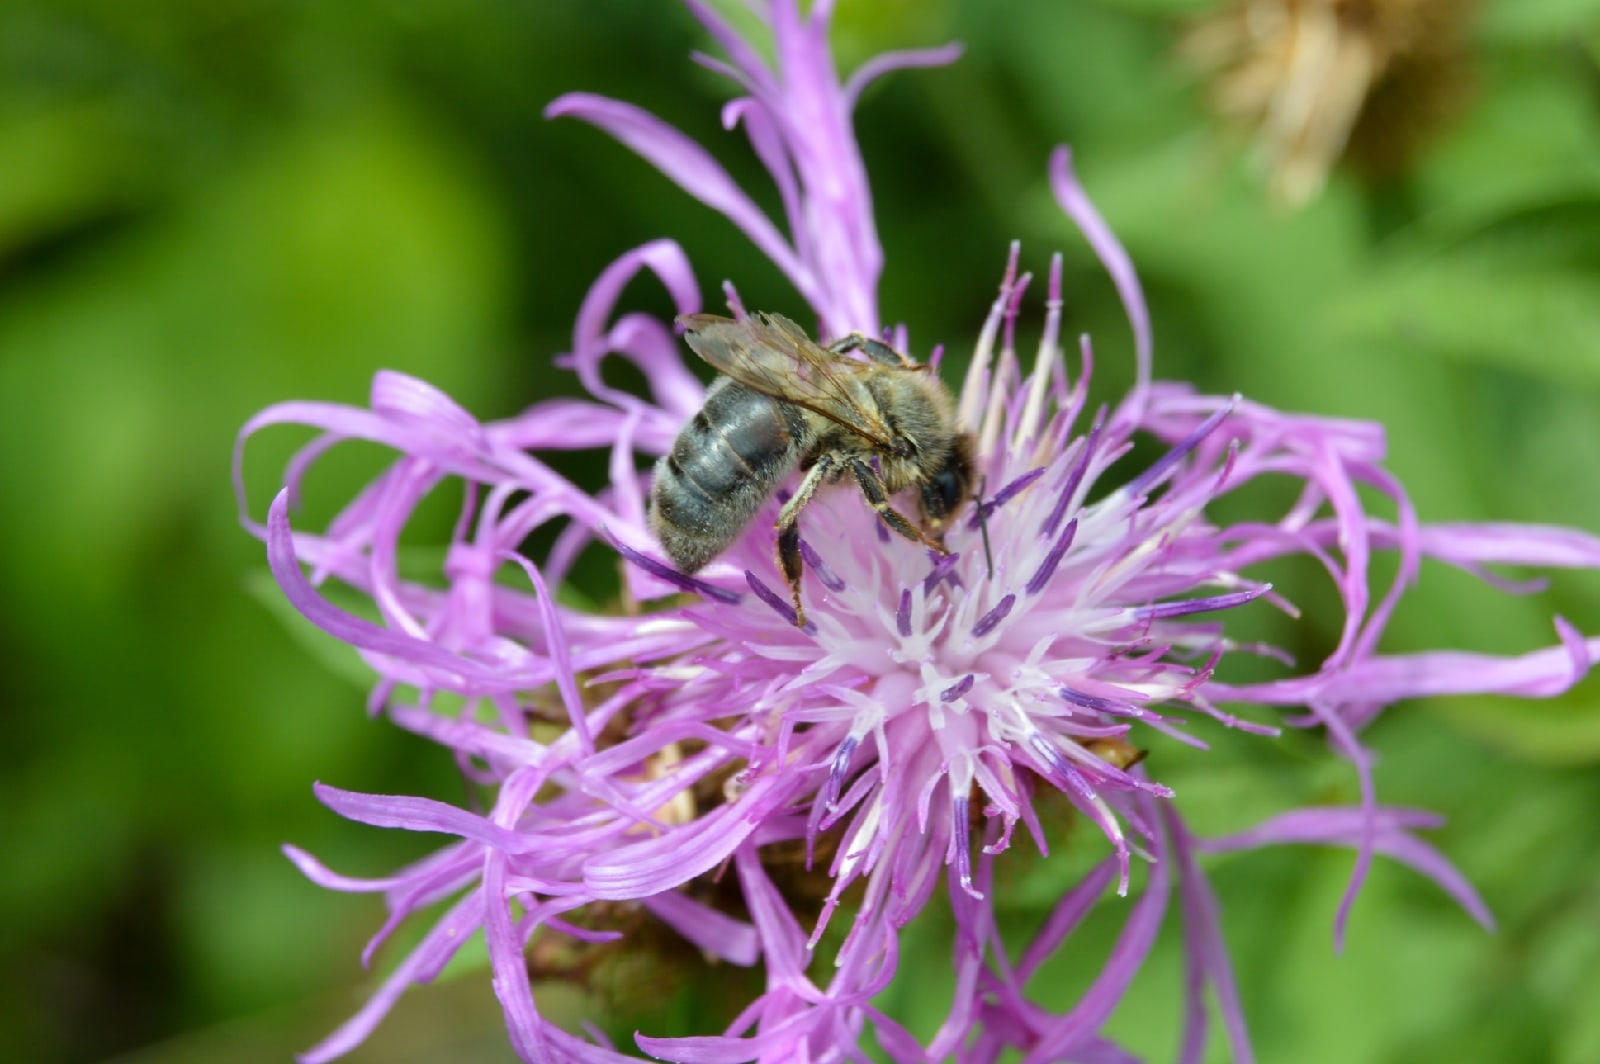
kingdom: Animalia
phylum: Arthropoda
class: Insecta
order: Hymenoptera
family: Apidae
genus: Apis
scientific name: Apis mellifera
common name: Honey bee
